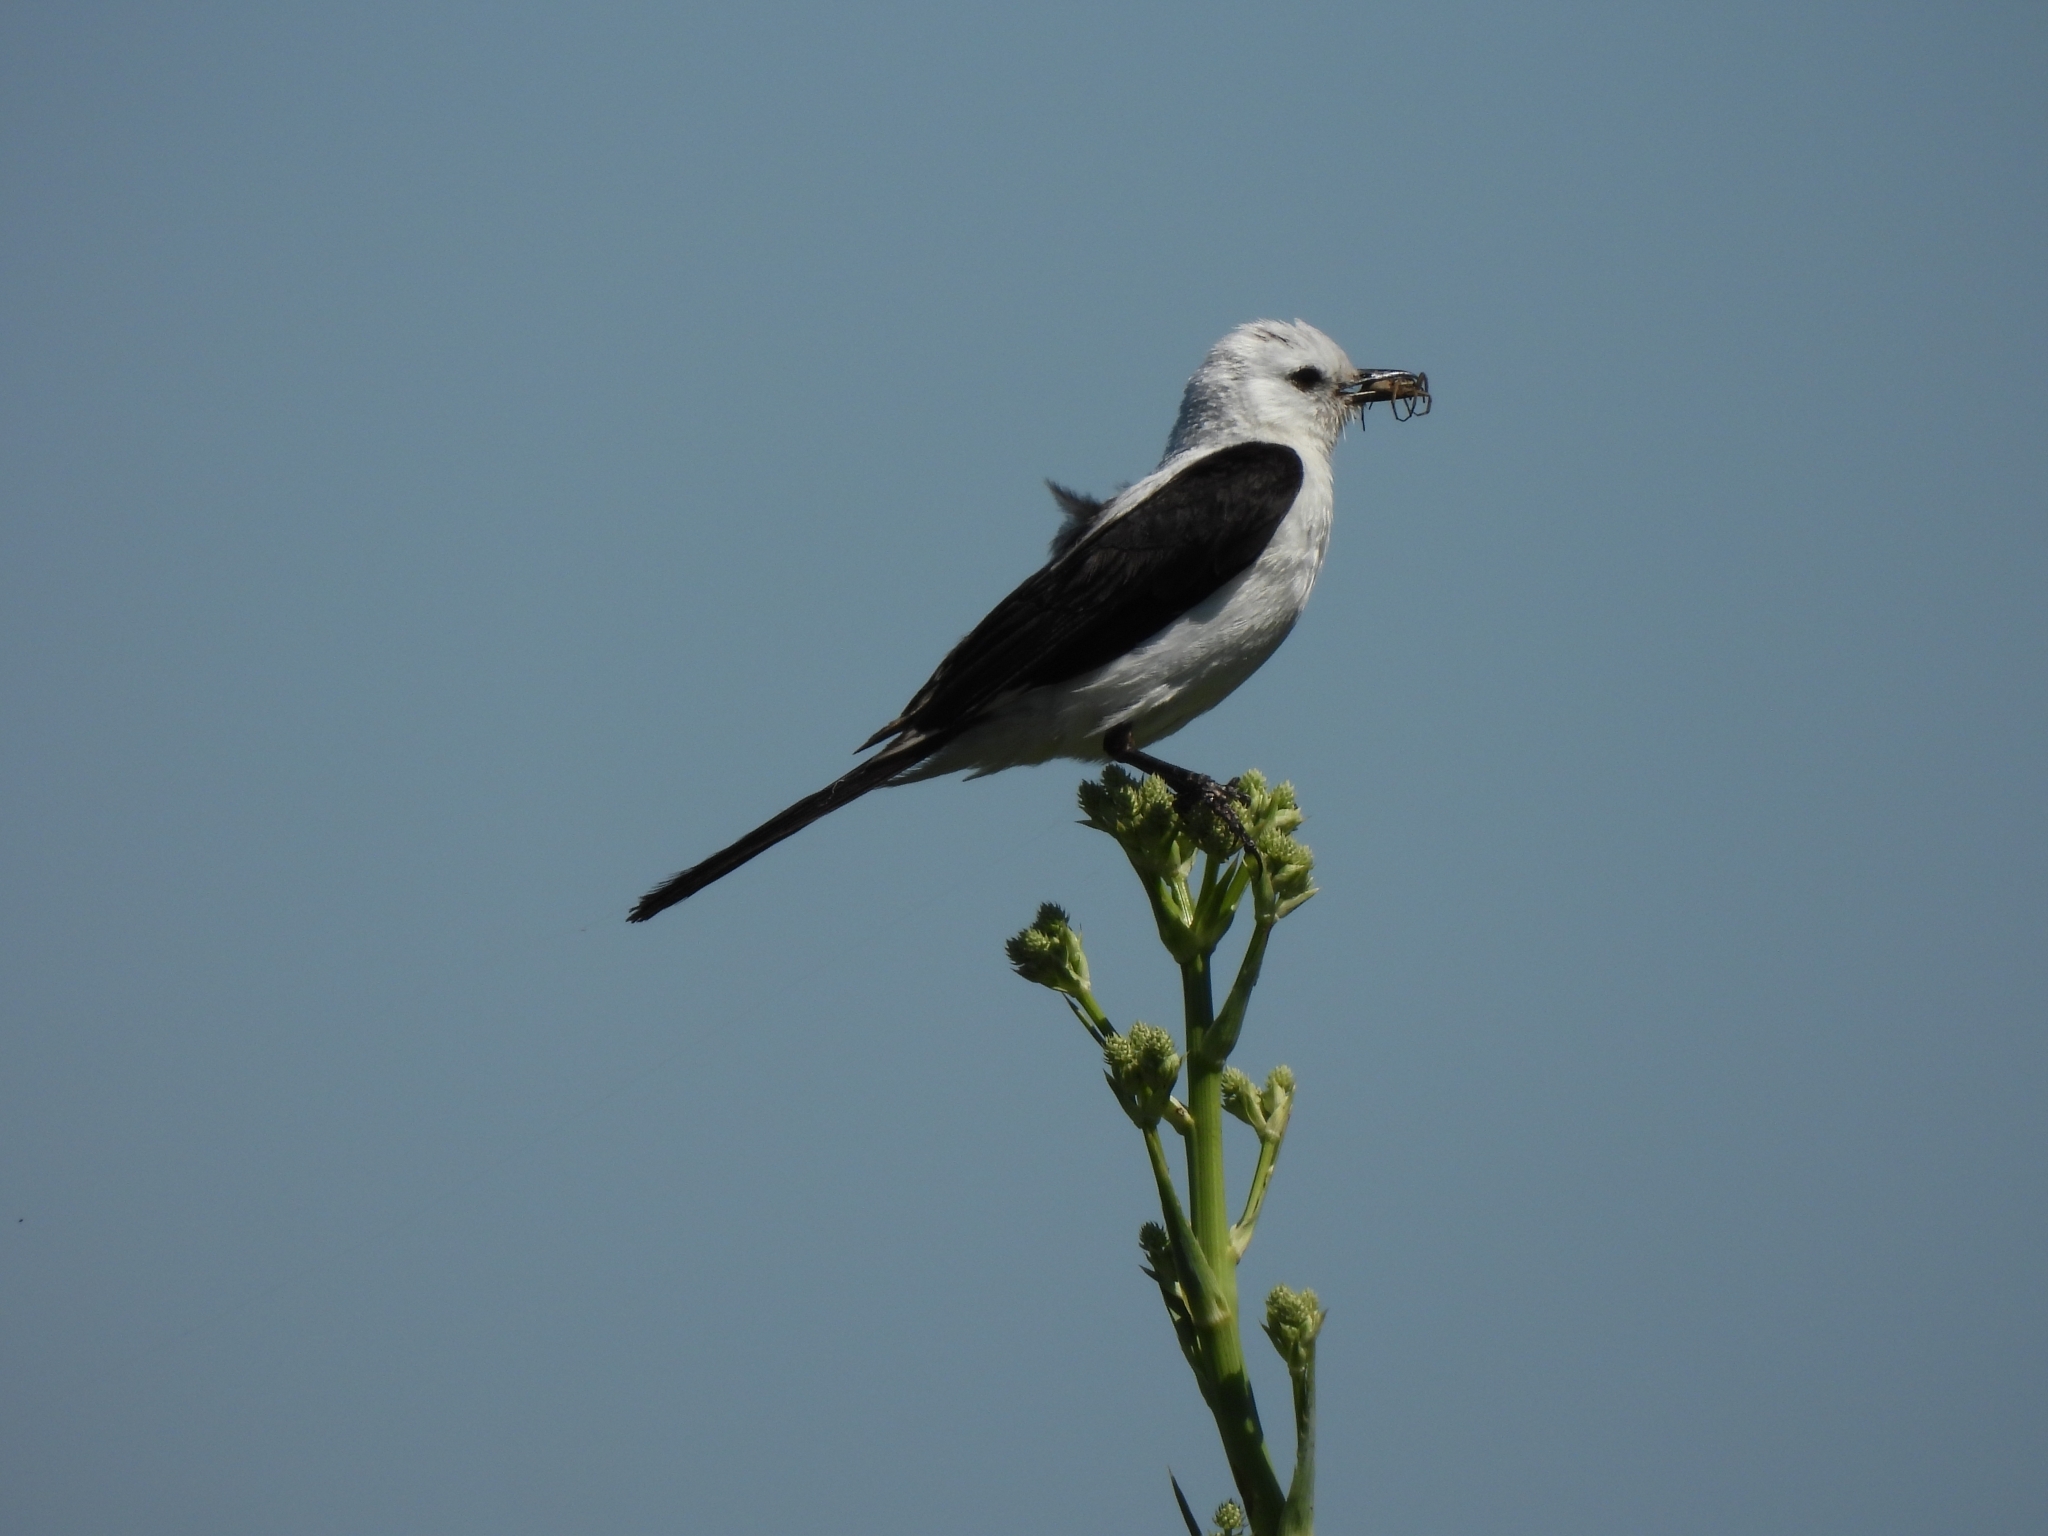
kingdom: Animalia
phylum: Chordata
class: Aves
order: Passeriformes
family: Tyrannidae
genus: Heteroxolmis
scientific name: Heteroxolmis dominicana
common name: Black-and-white monjita
